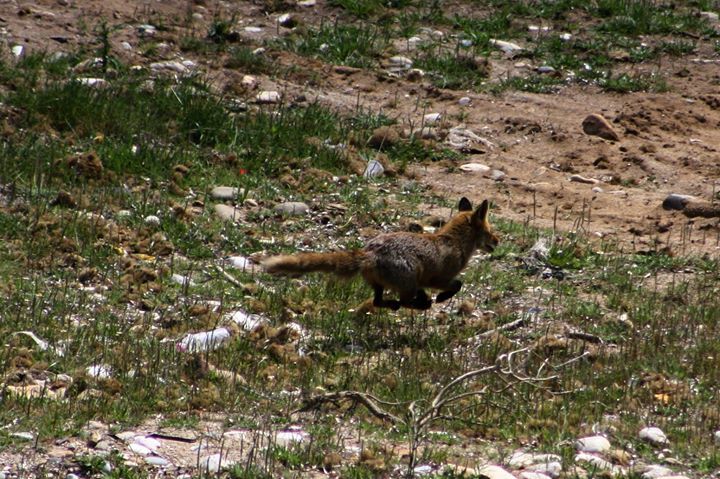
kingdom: Animalia
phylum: Chordata
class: Mammalia
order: Carnivora
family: Canidae
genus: Vulpes
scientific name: Vulpes vulpes
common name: Red fox
